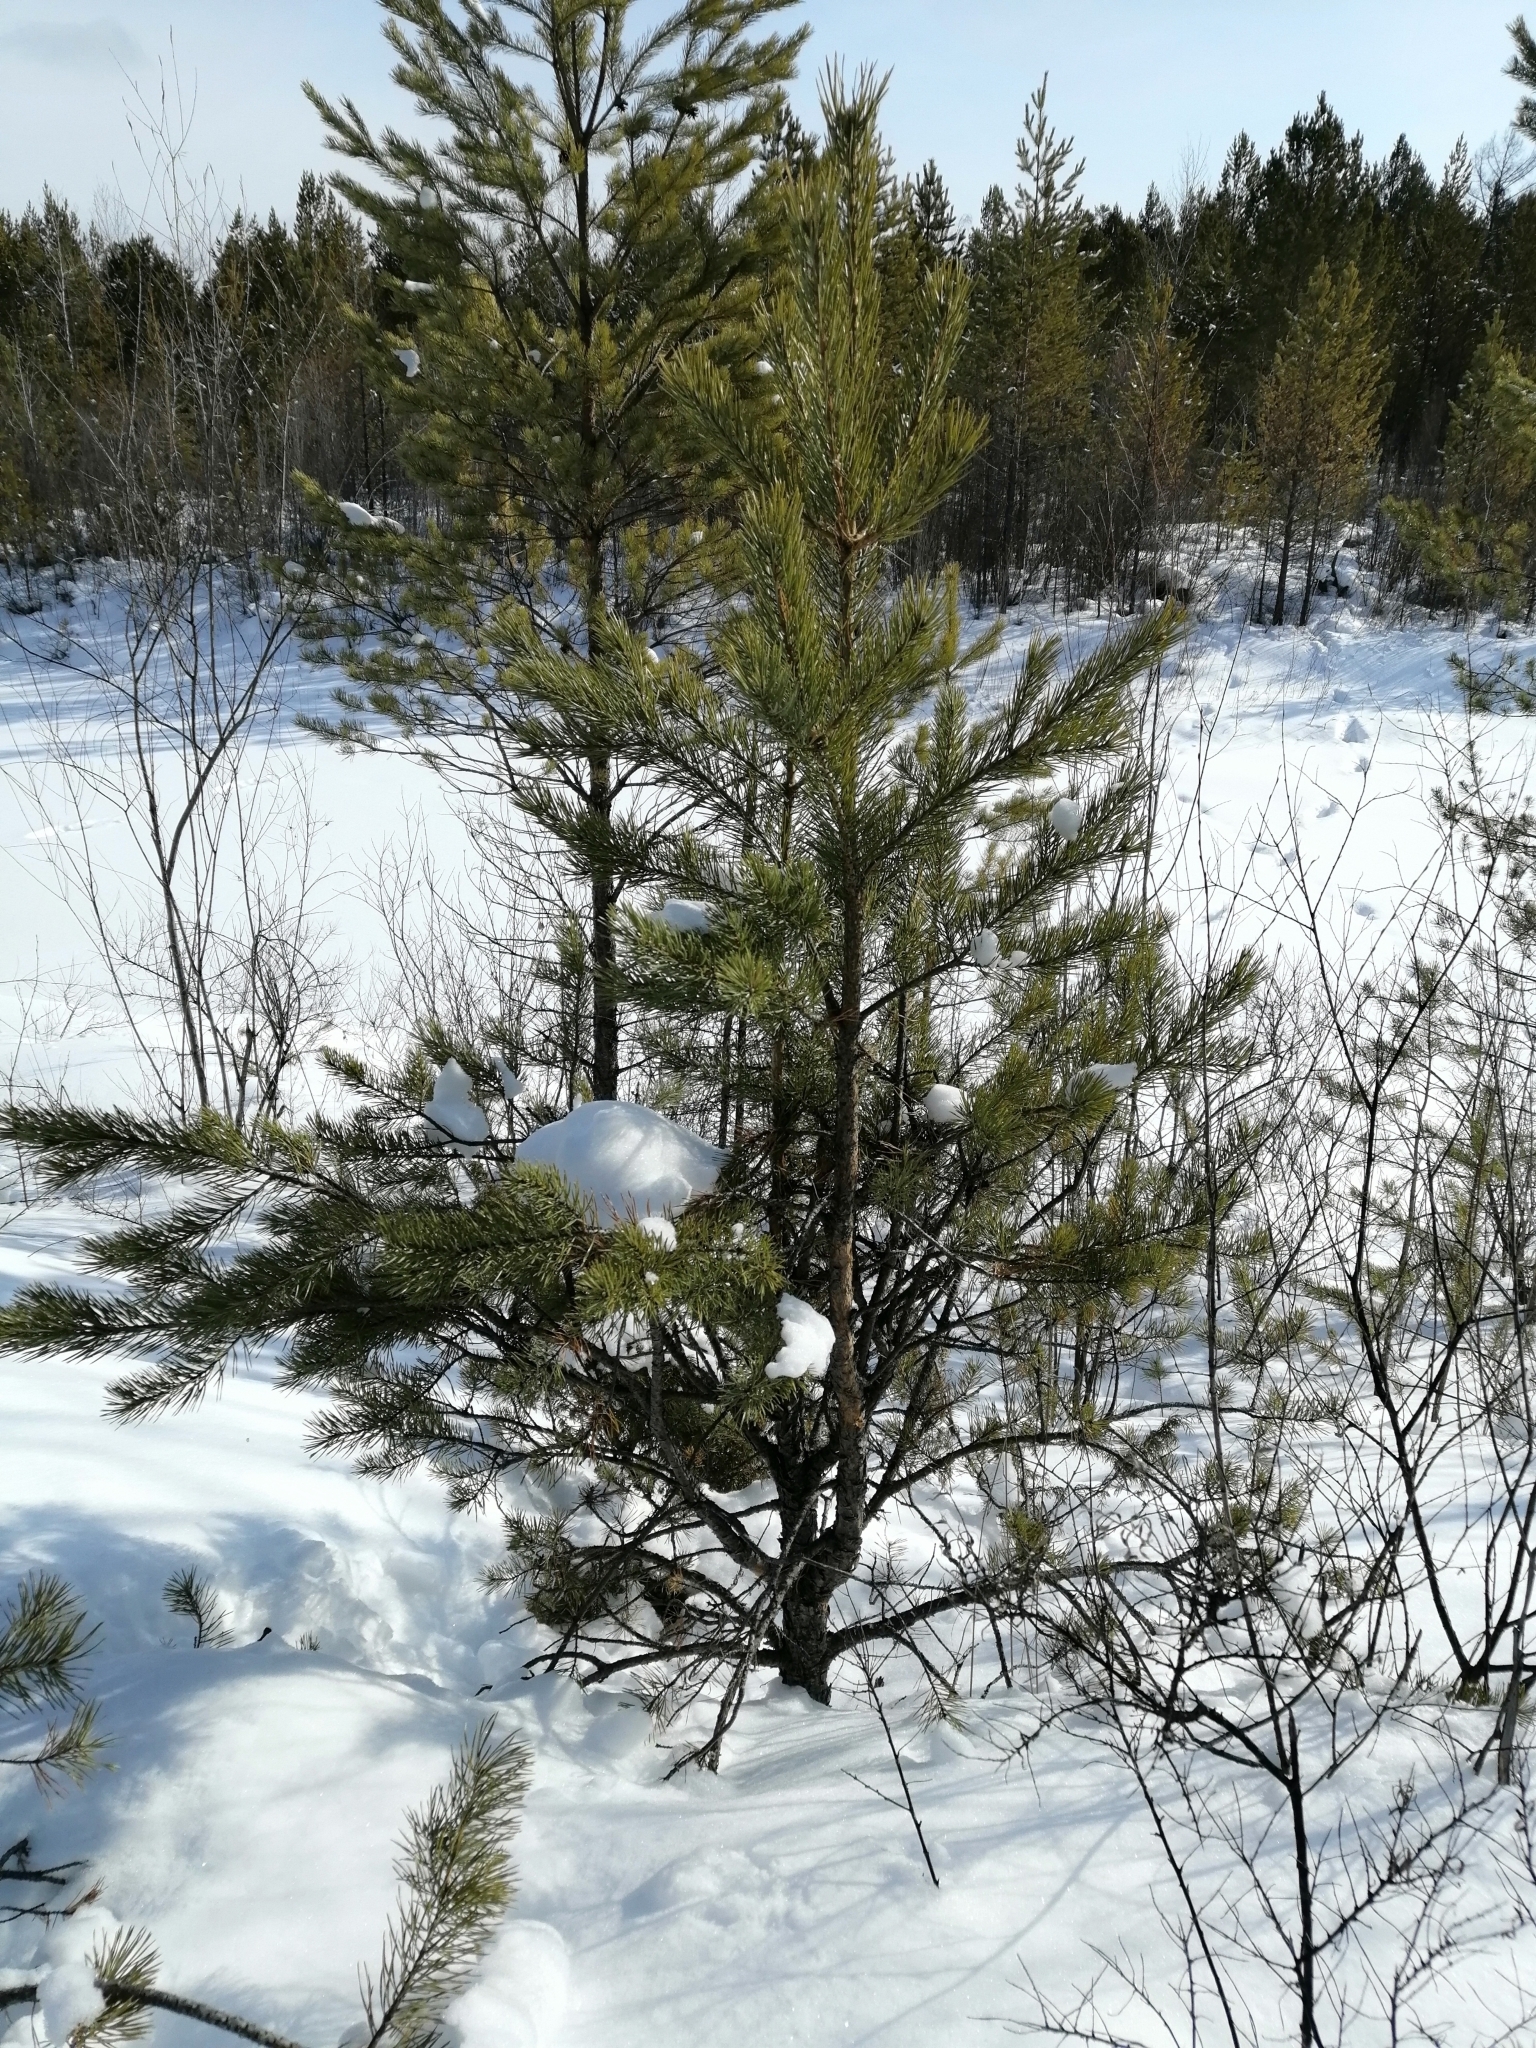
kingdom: Plantae
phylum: Tracheophyta
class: Pinopsida
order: Pinales
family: Pinaceae
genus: Pinus
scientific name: Pinus sylvestris
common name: Scots pine
